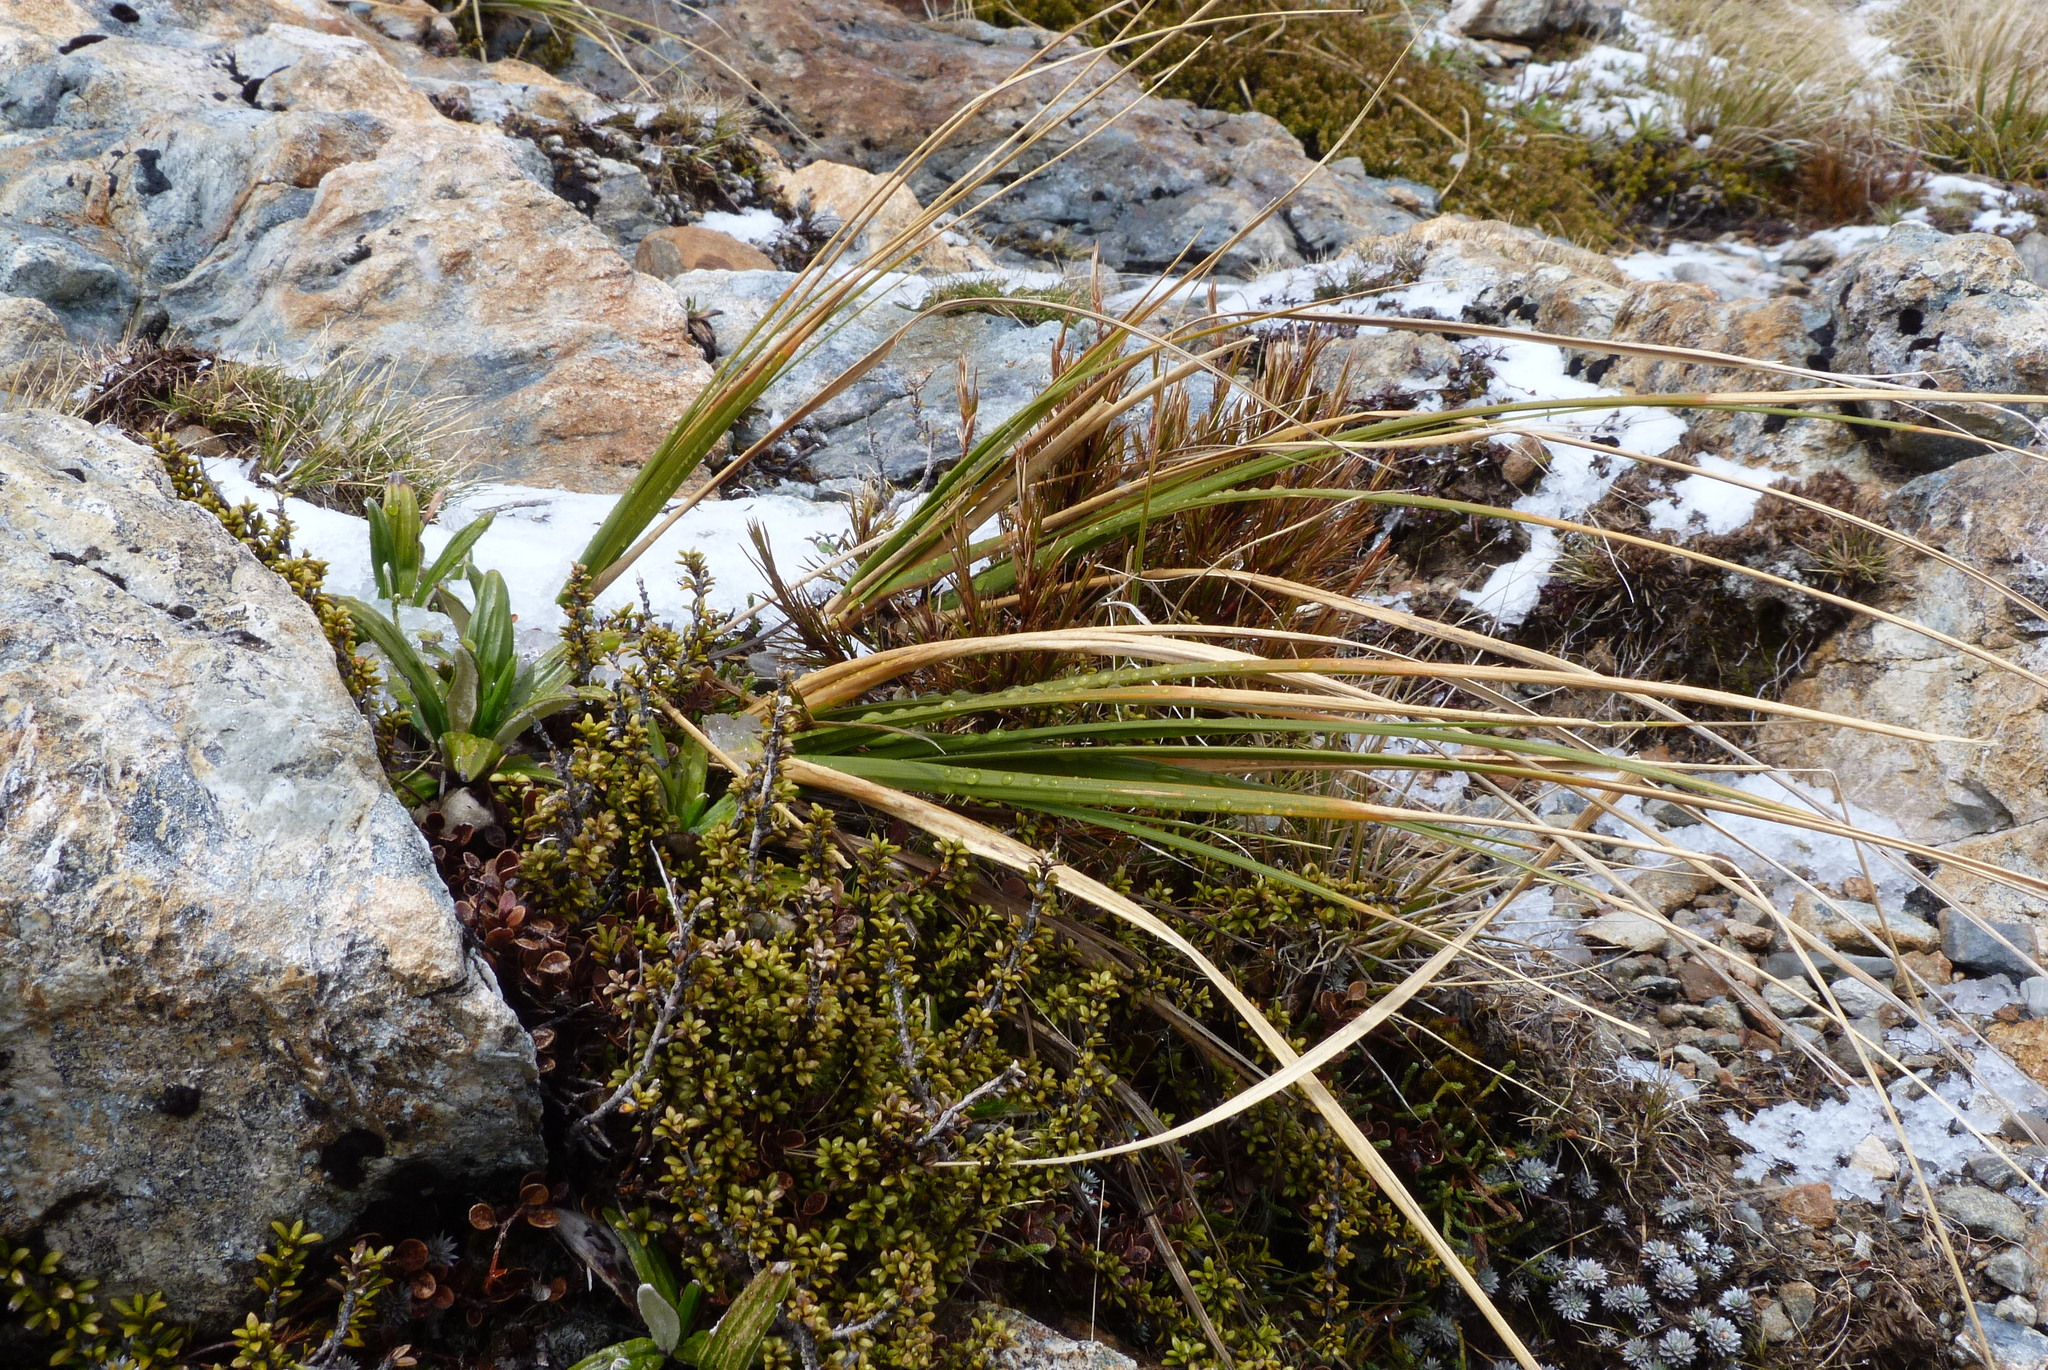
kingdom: Plantae
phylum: Tracheophyta
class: Magnoliopsida
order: Gentianales
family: Rubiaceae
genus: Coprosma
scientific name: Coprosma fowerakeri
